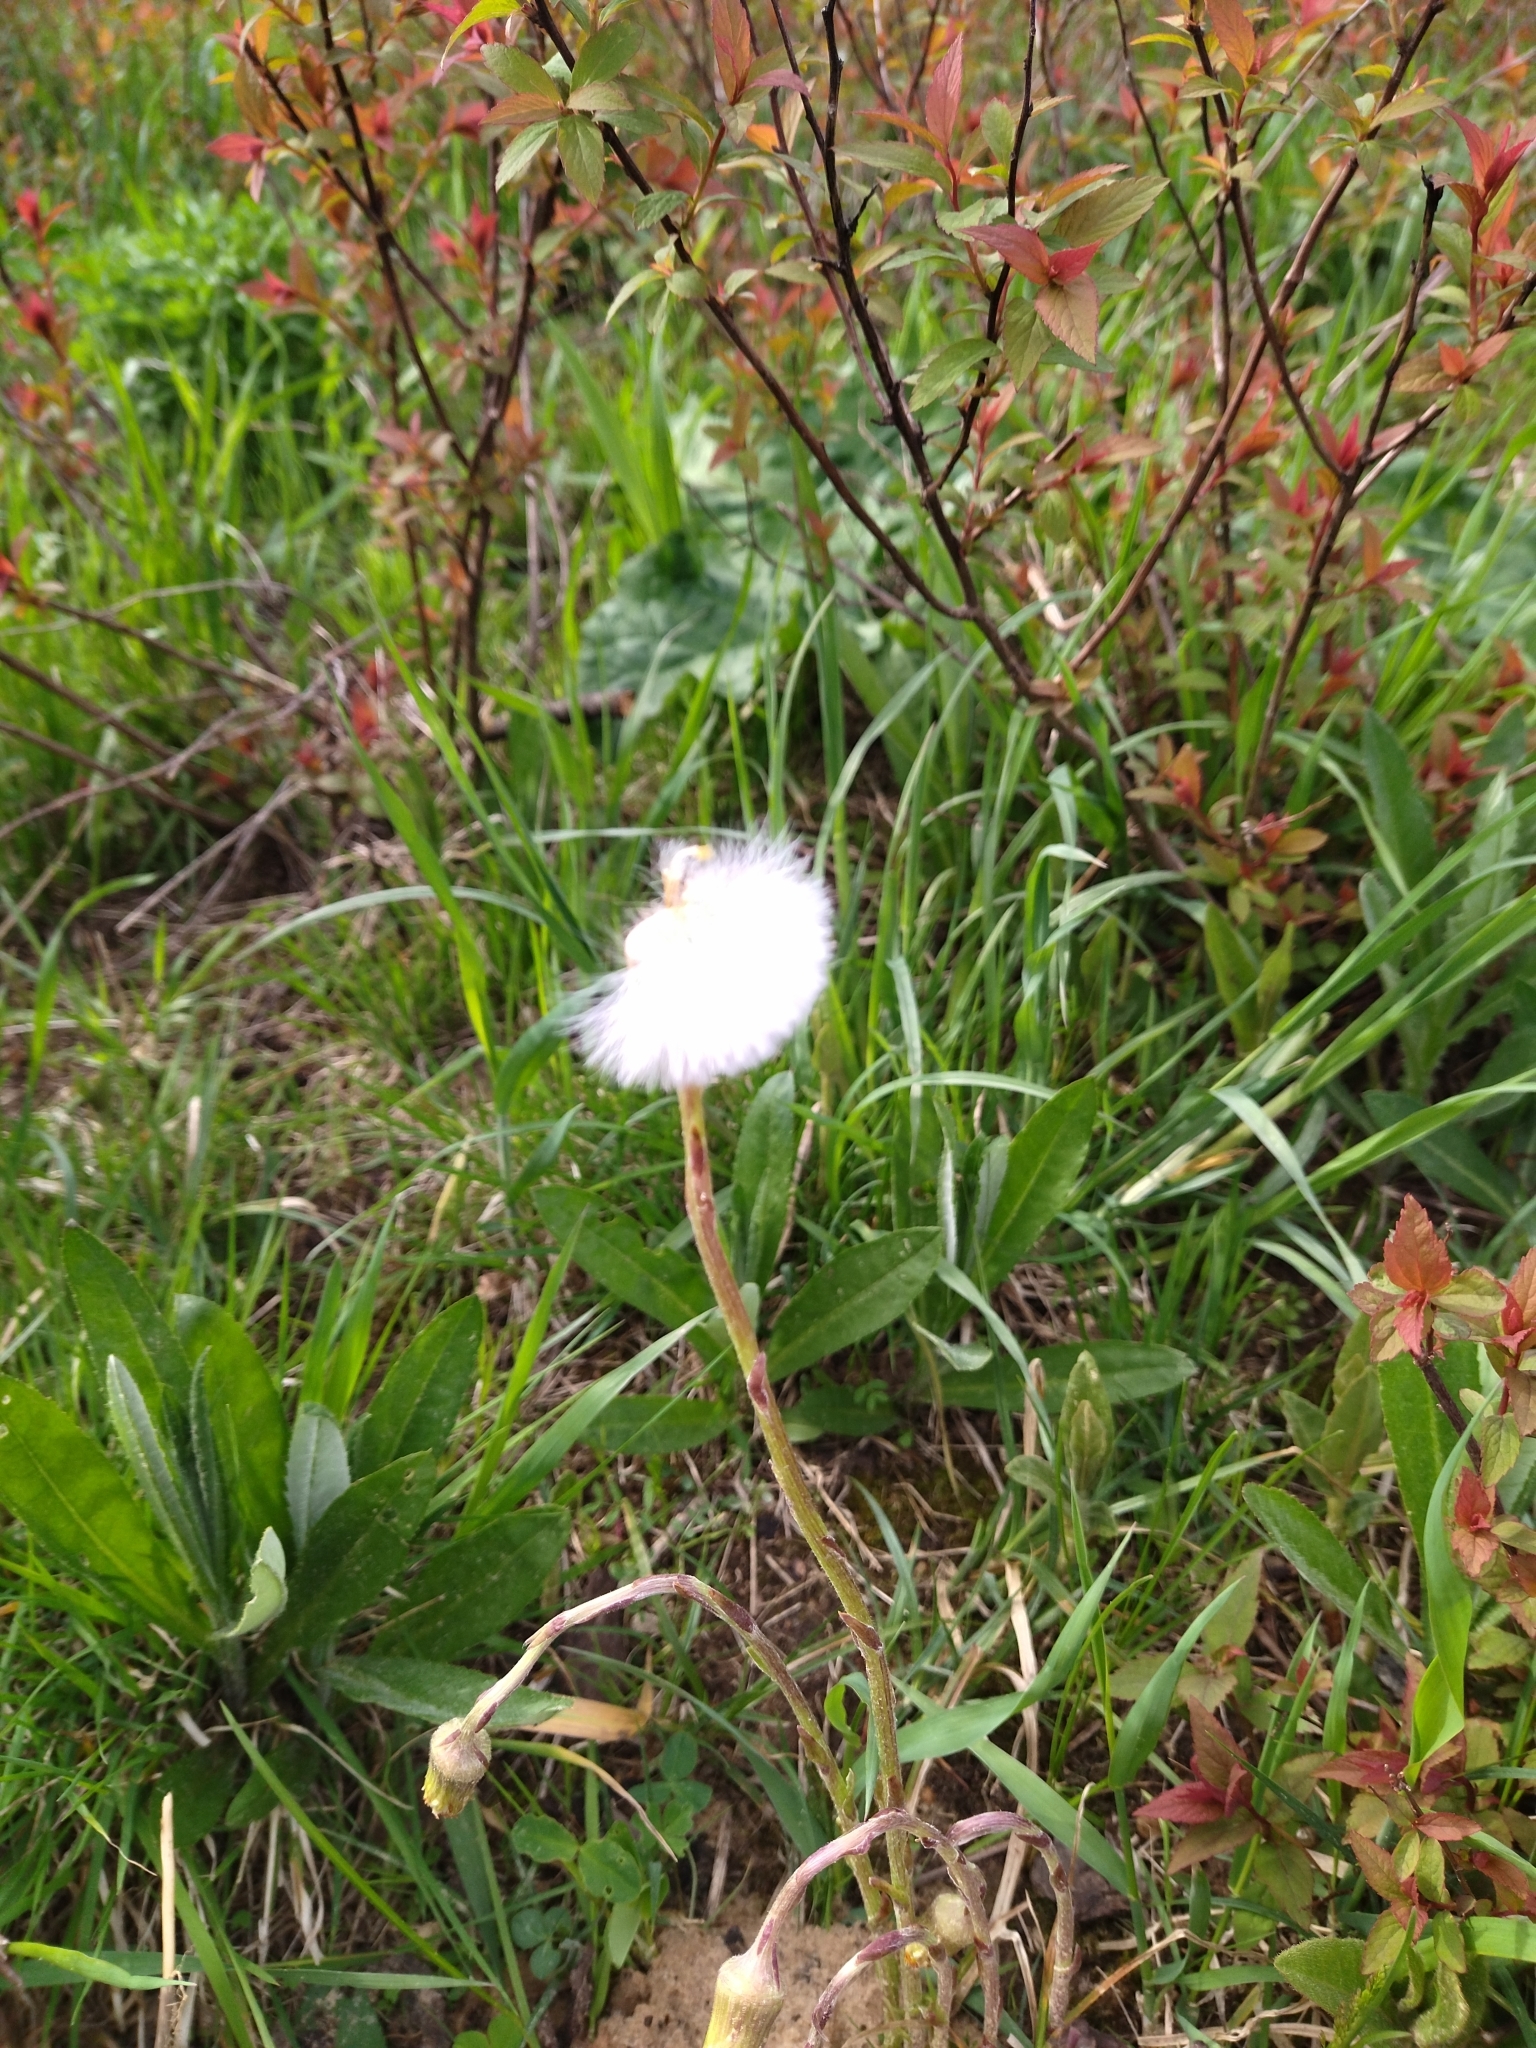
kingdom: Plantae
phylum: Tracheophyta
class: Magnoliopsida
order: Asterales
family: Asteraceae
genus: Tussilago
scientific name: Tussilago farfara
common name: Coltsfoot
